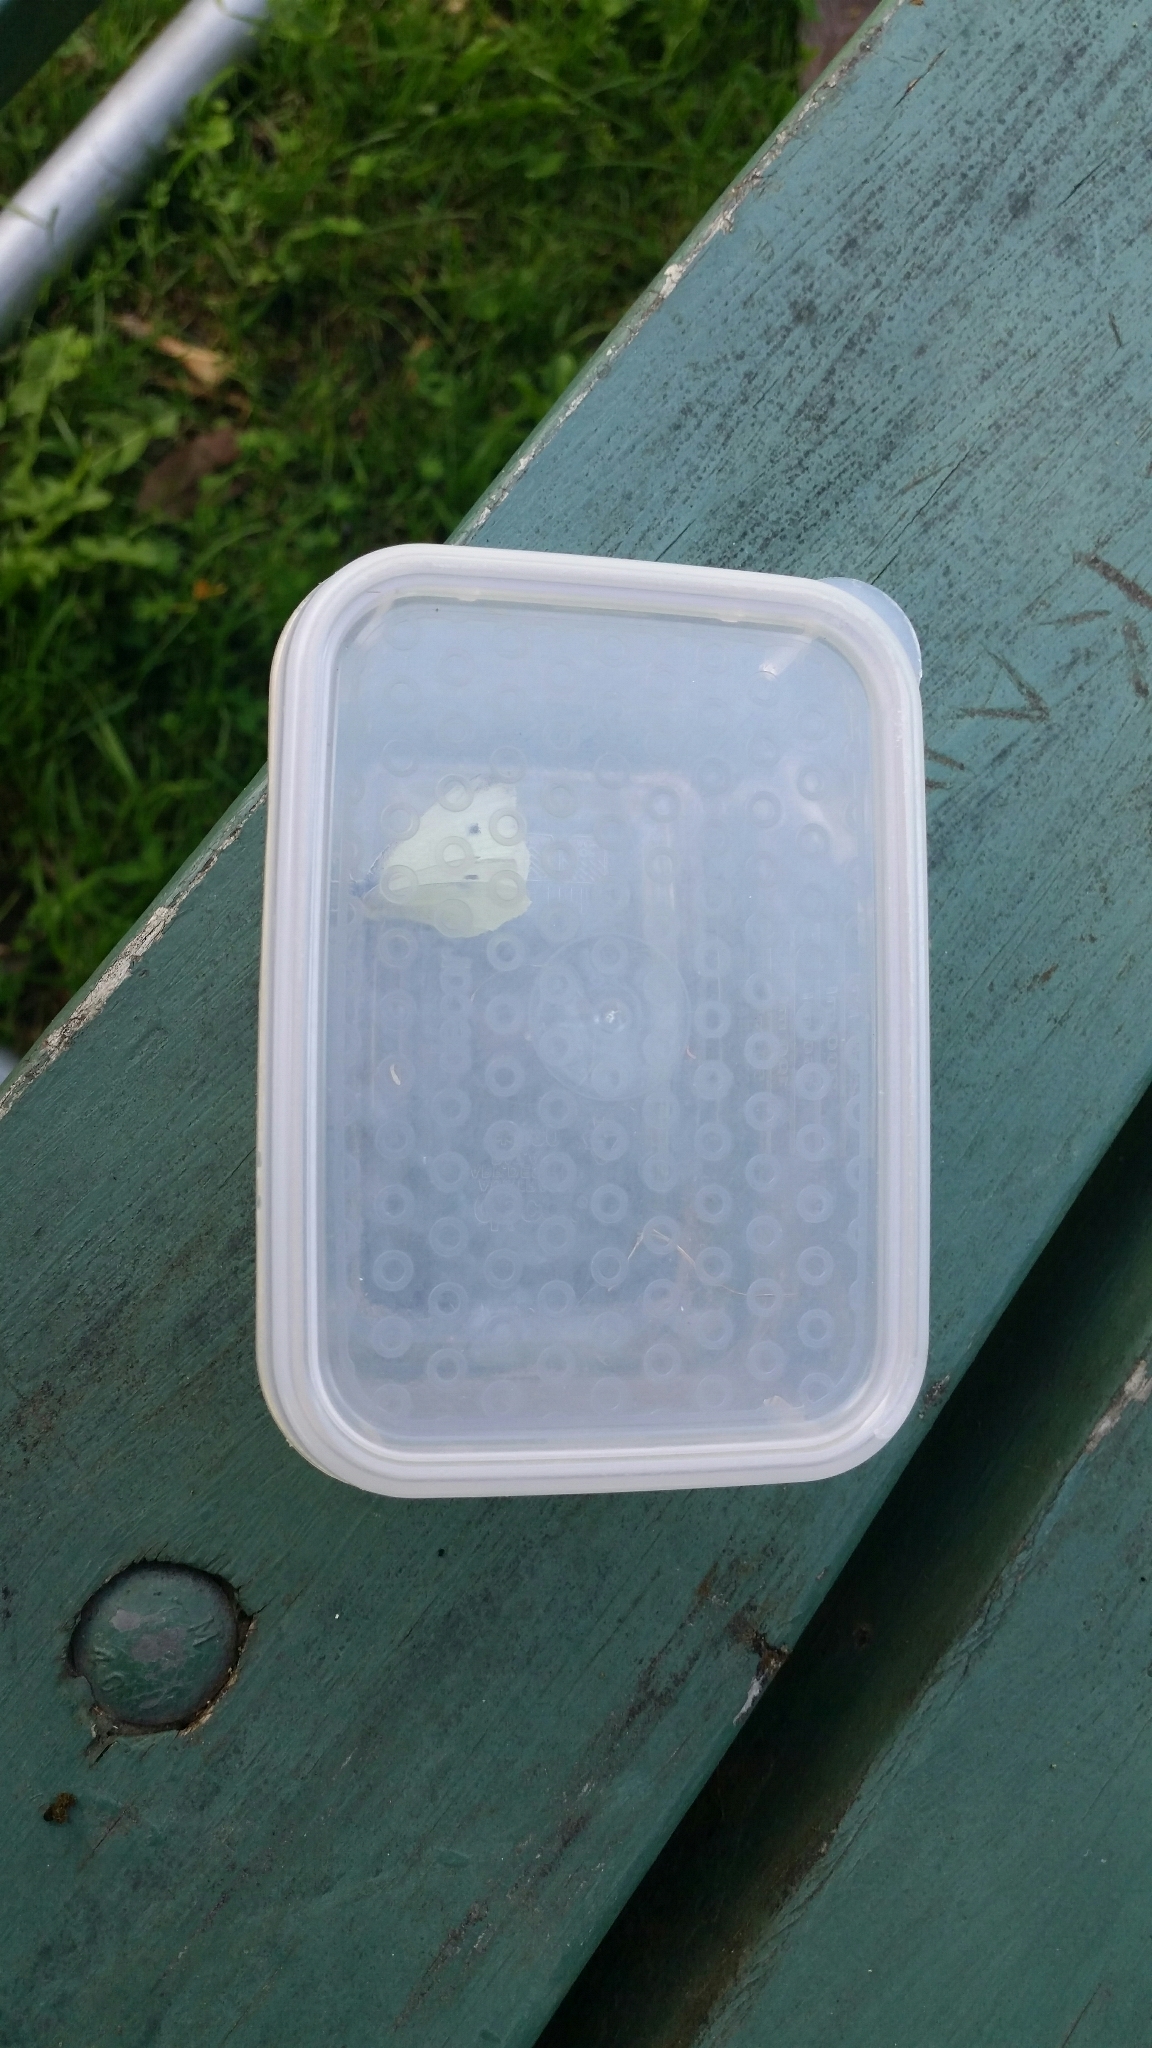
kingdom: Animalia
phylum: Arthropoda
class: Insecta
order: Lepidoptera
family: Pieridae
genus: Pieris
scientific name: Pieris rapae
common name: Small white
